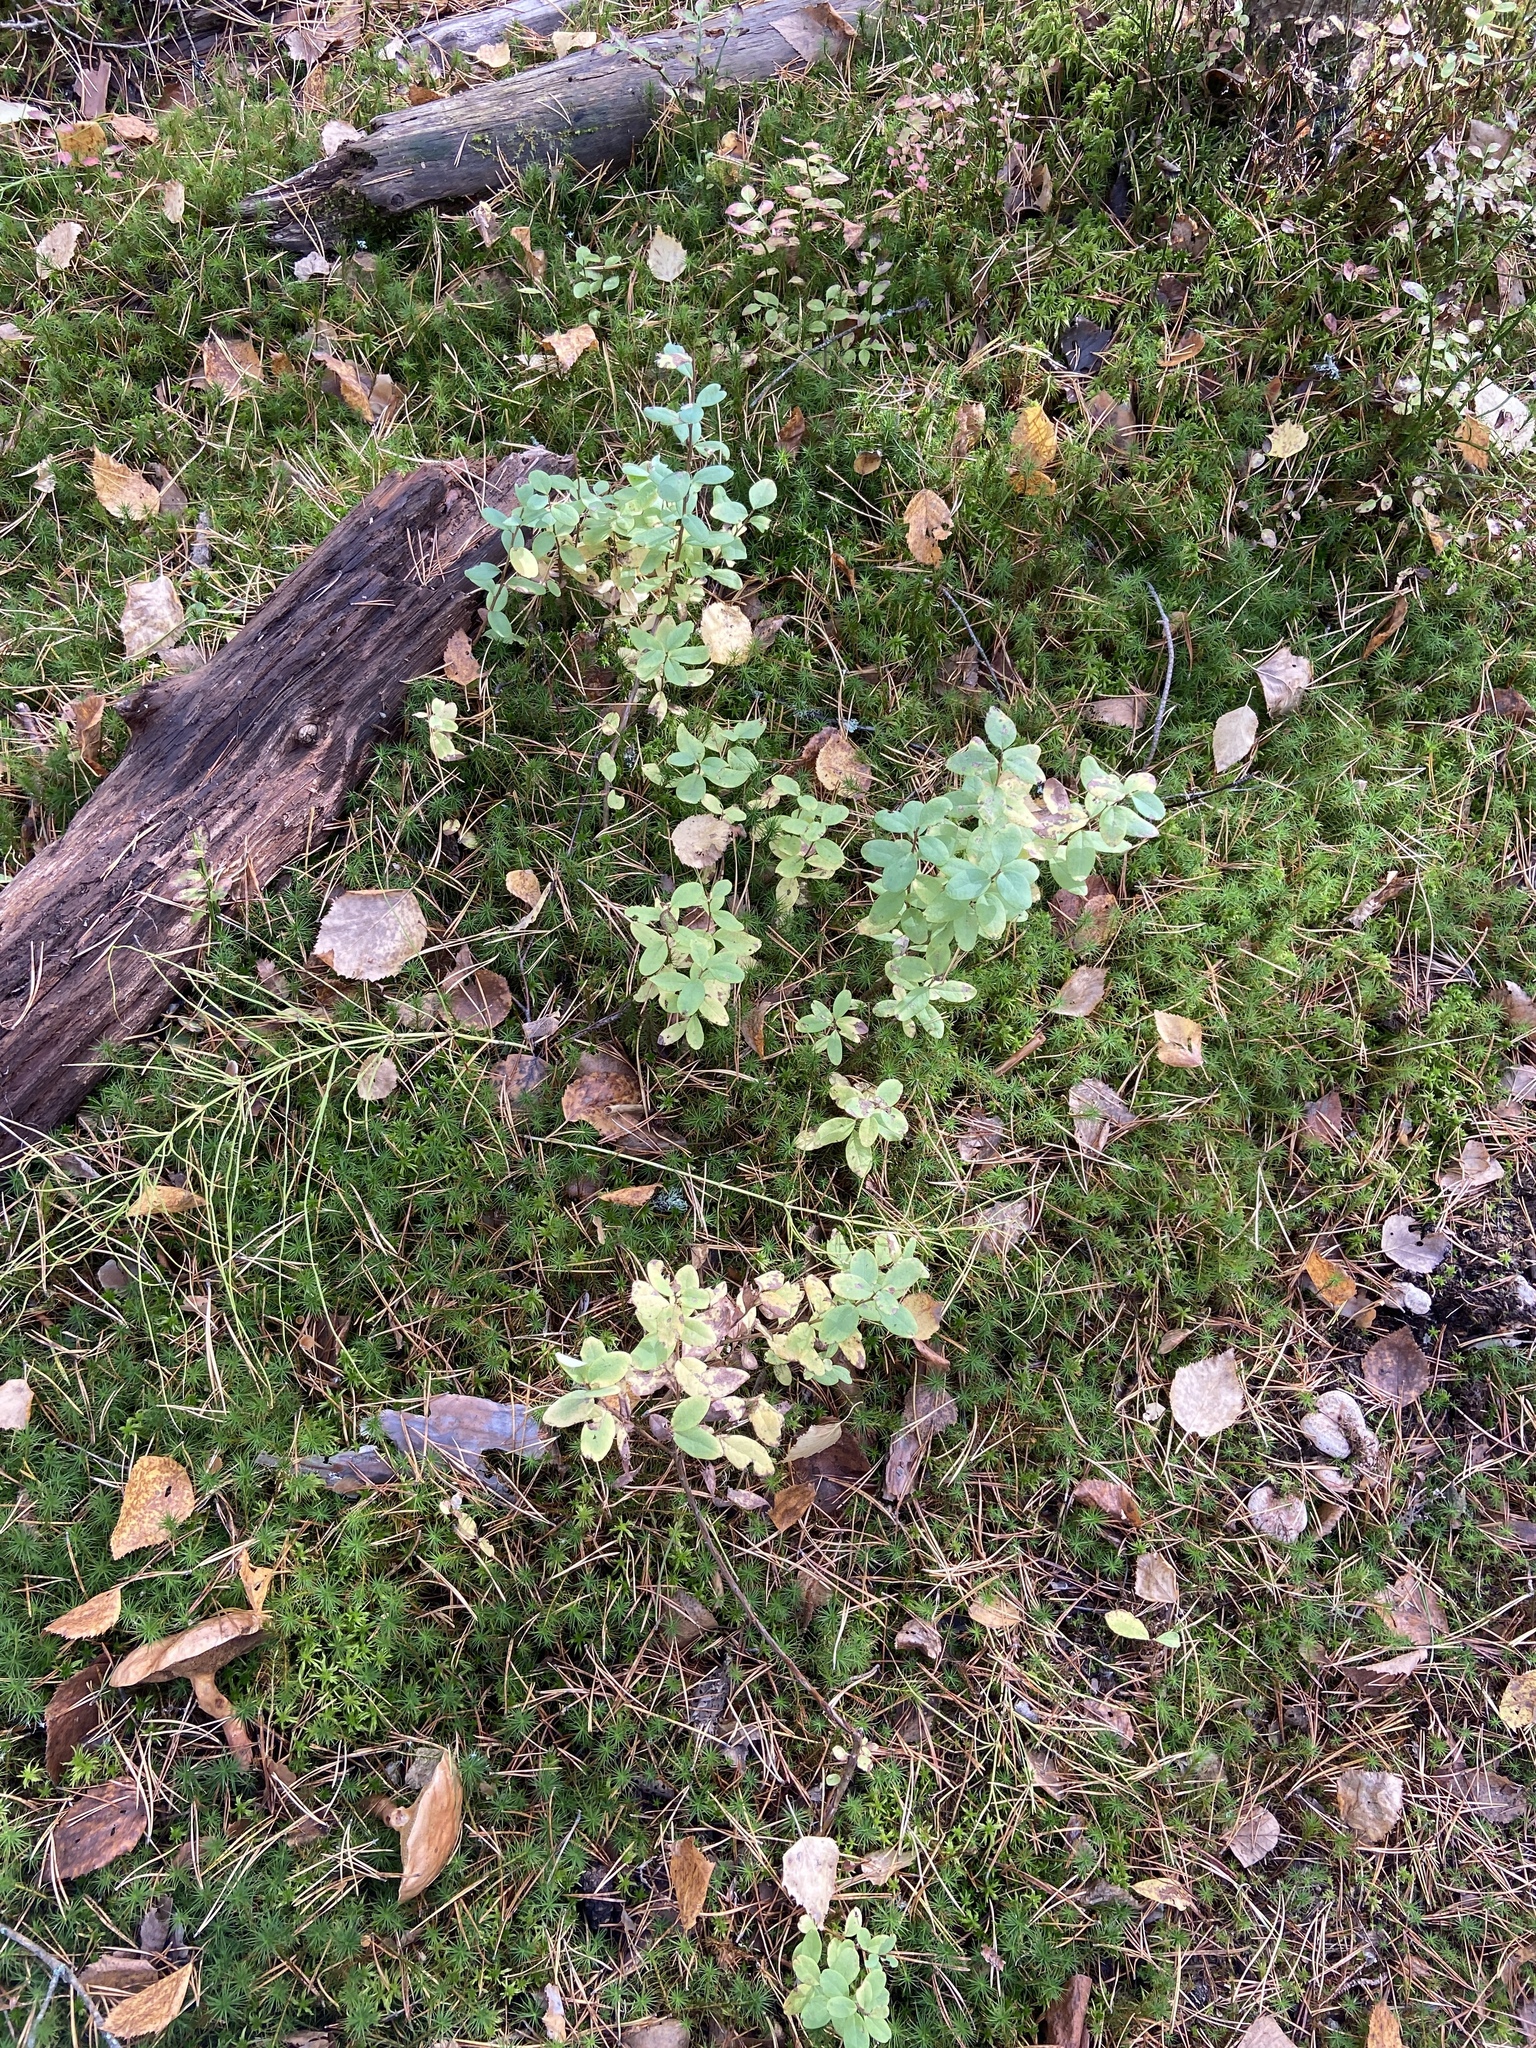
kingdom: Plantae
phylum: Tracheophyta
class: Magnoliopsida
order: Ericales
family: Ericaceae
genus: Vaccinium
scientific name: Vaccinium uliginosum
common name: Bog bilberry
